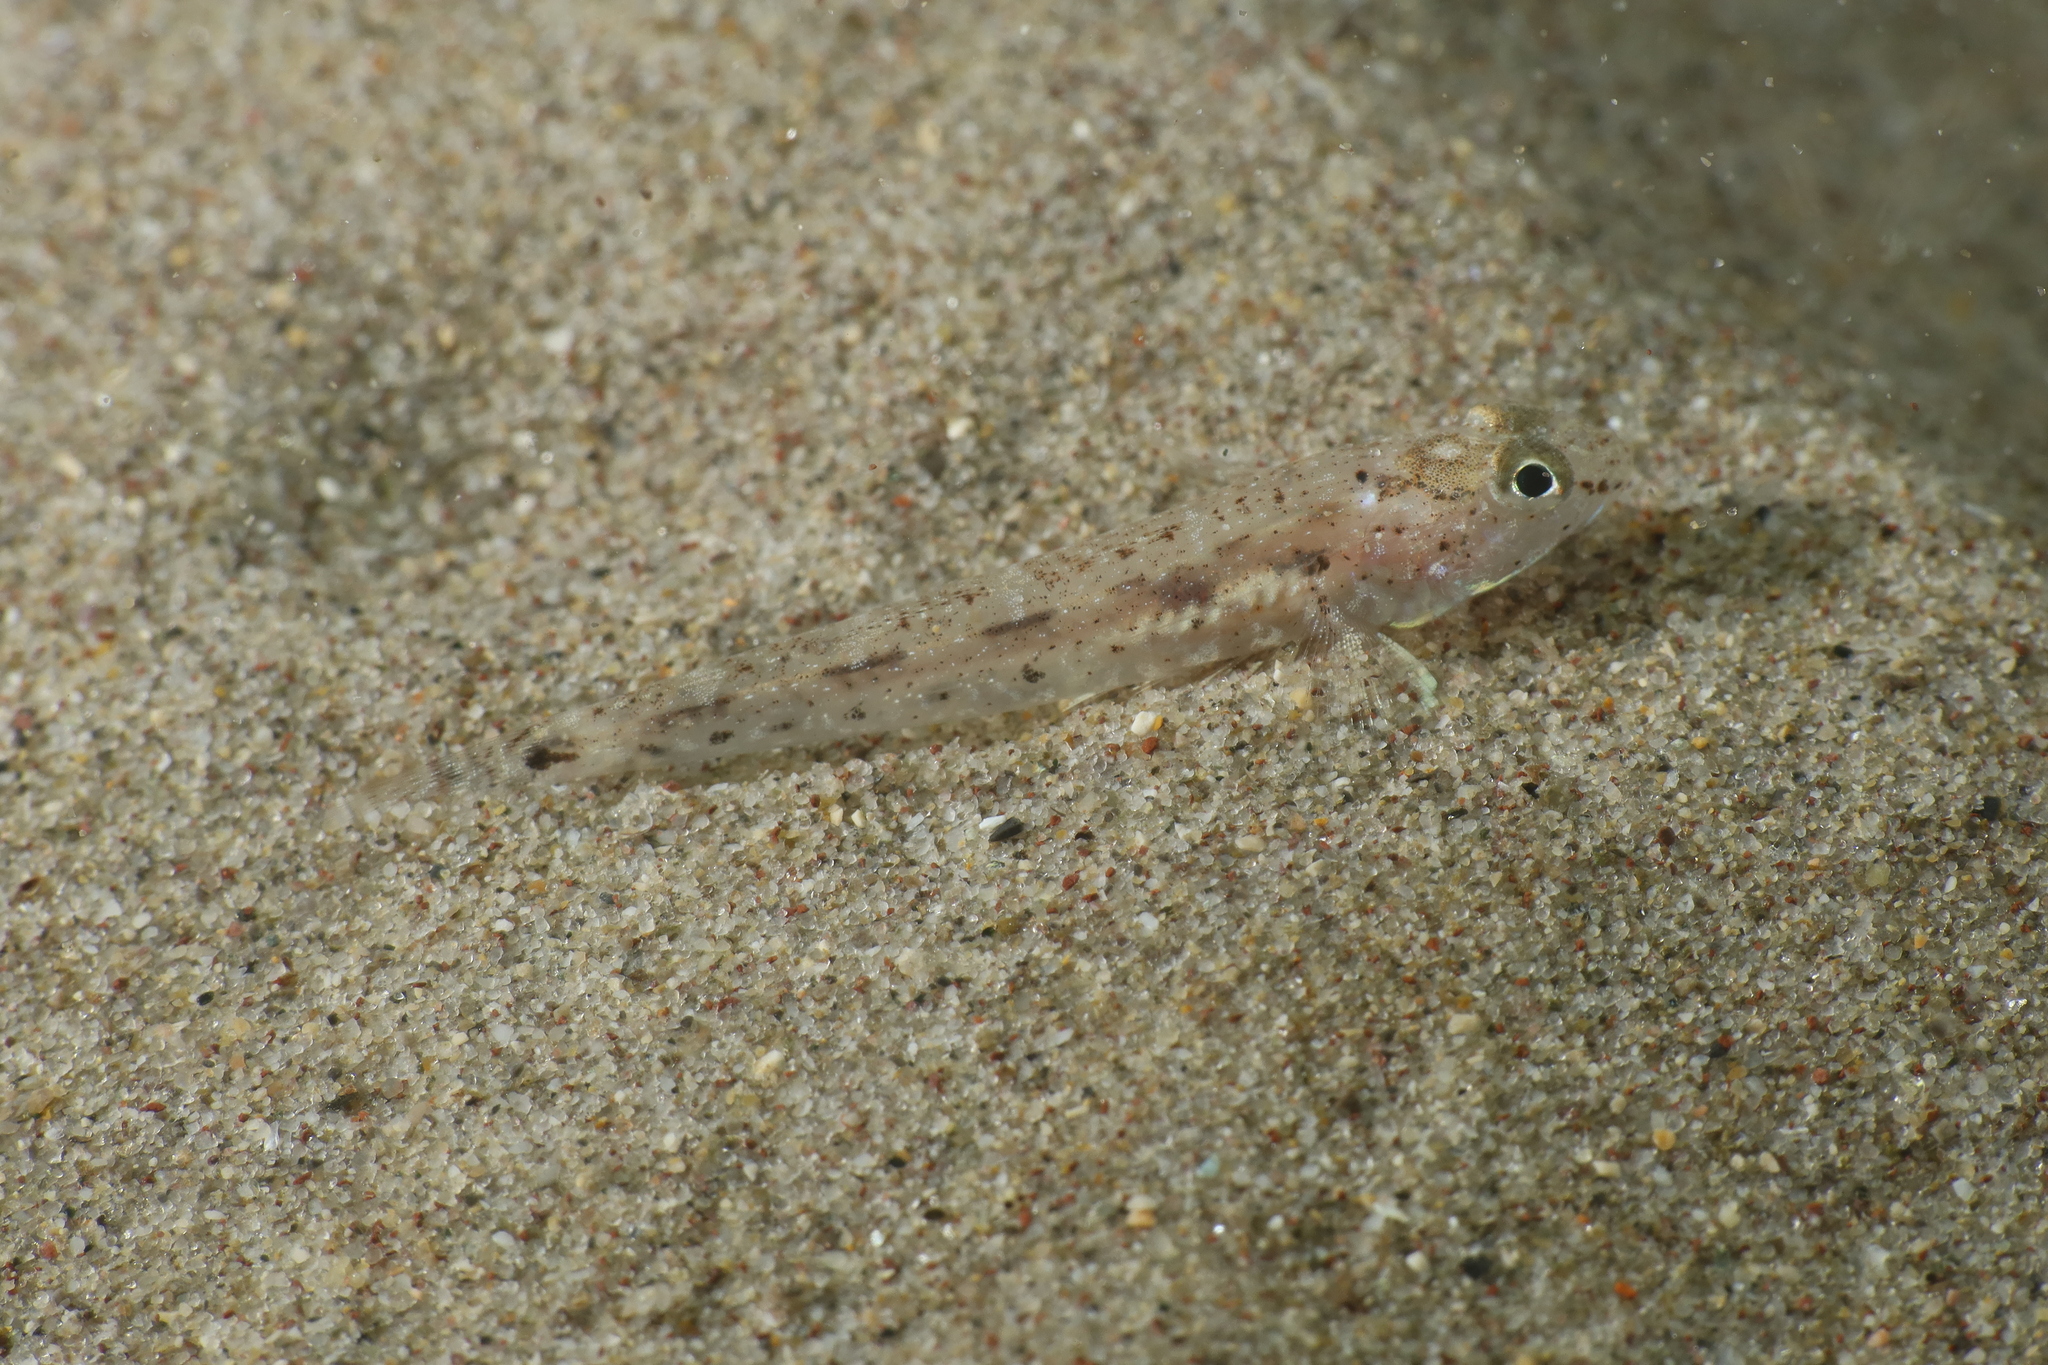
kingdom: Animalia
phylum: Chordata
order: Perciformes
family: Gobiidae
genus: Pomatoschistus
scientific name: Pomatoschistus marmoratus
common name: Marbled goby
